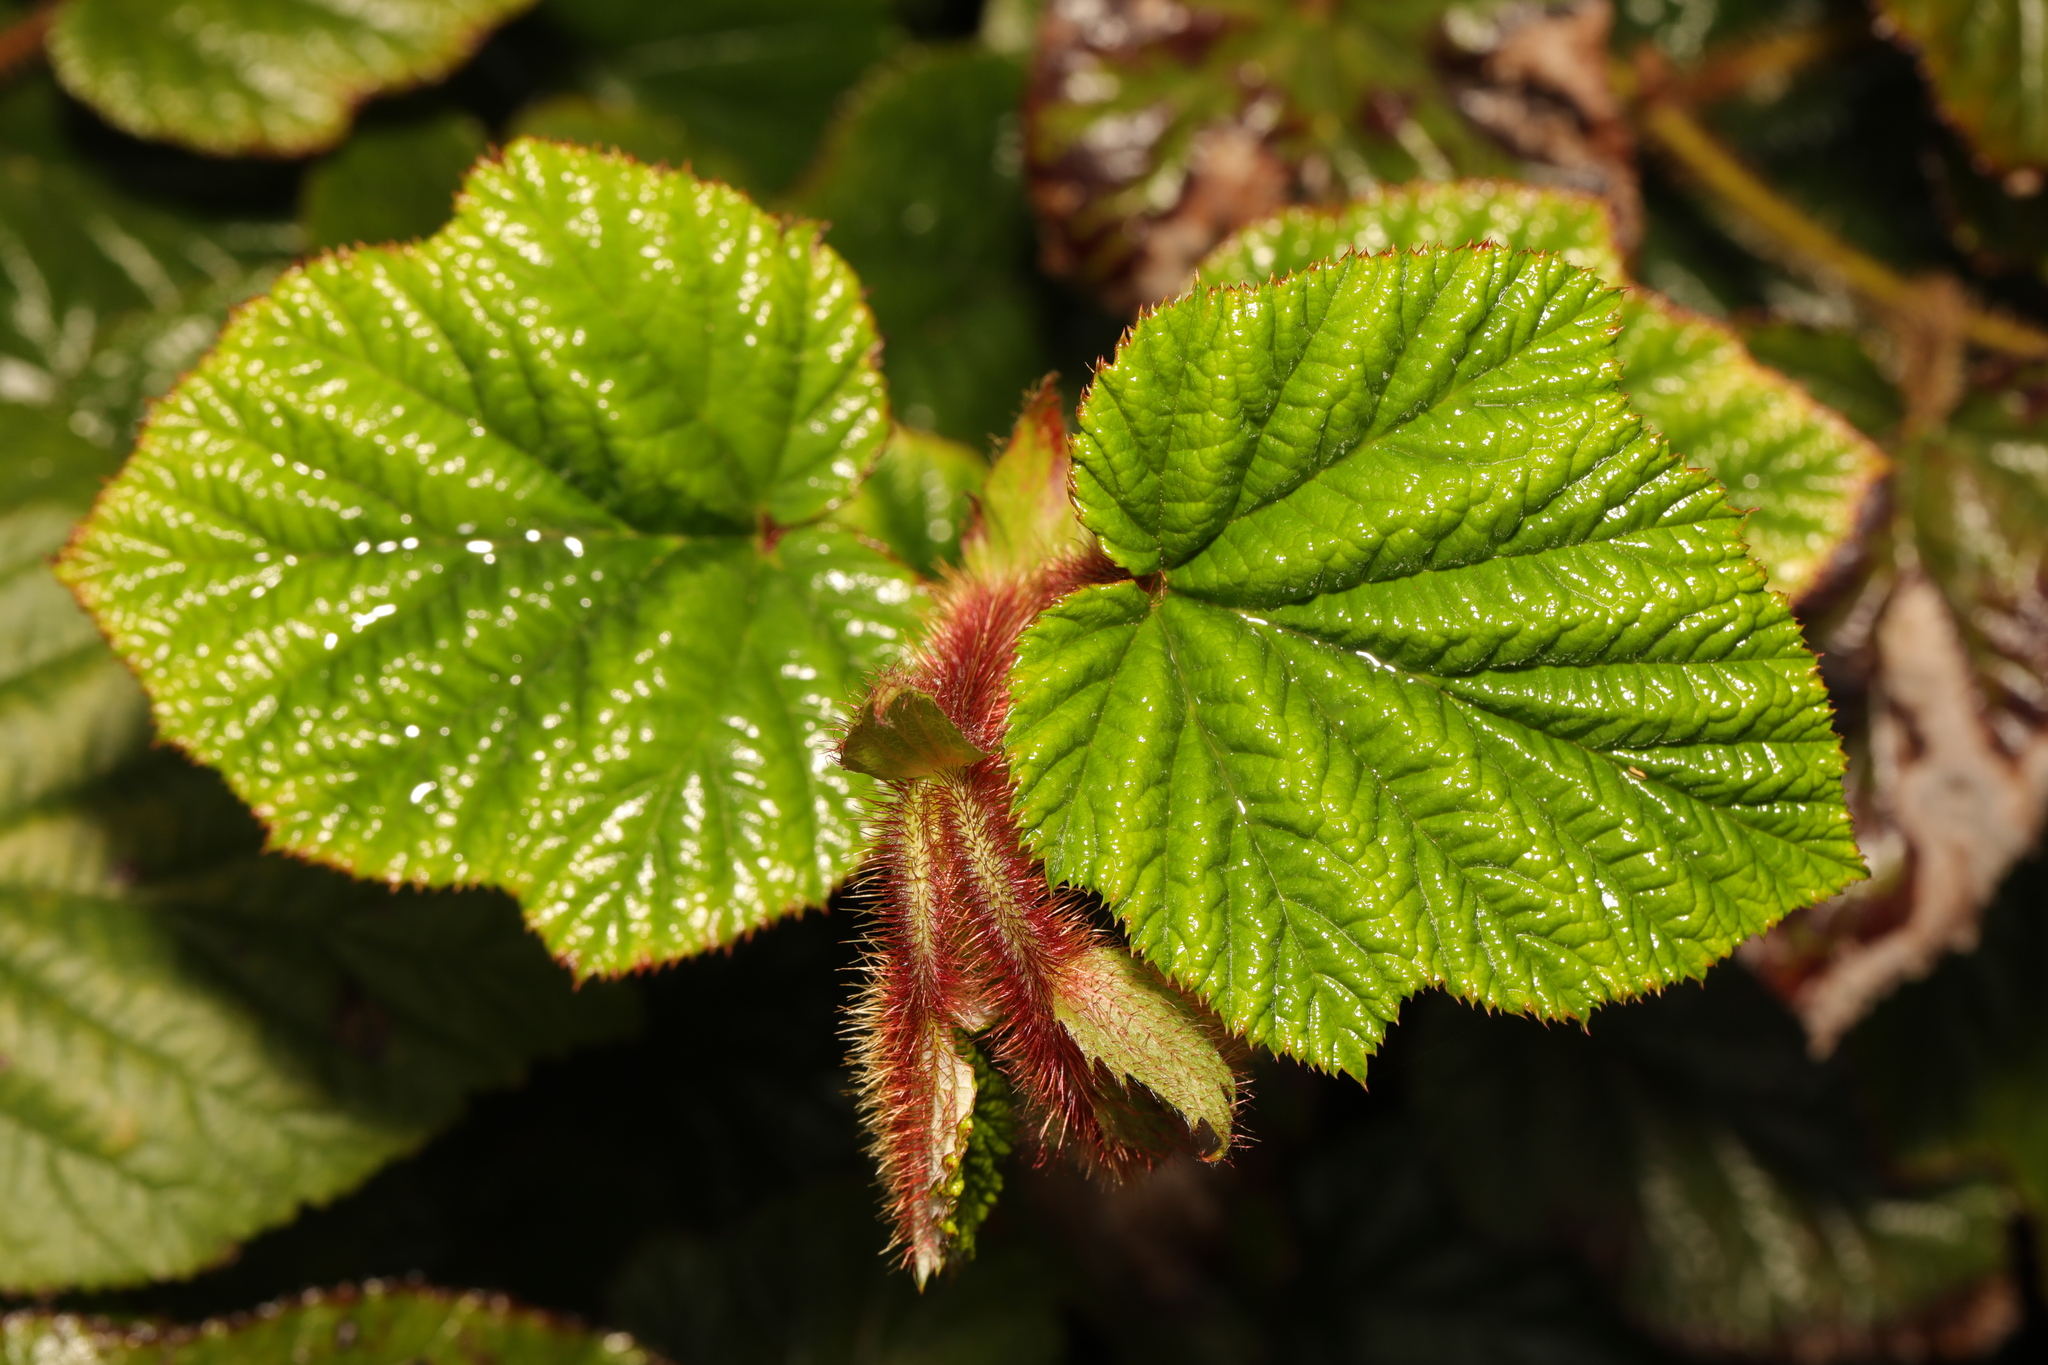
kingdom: Plantae
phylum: Tracheophyta
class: Magnoliopsida
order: Rosales
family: Rosaceae
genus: Rubus
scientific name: Rubus tricolor
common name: Chinese bramble
